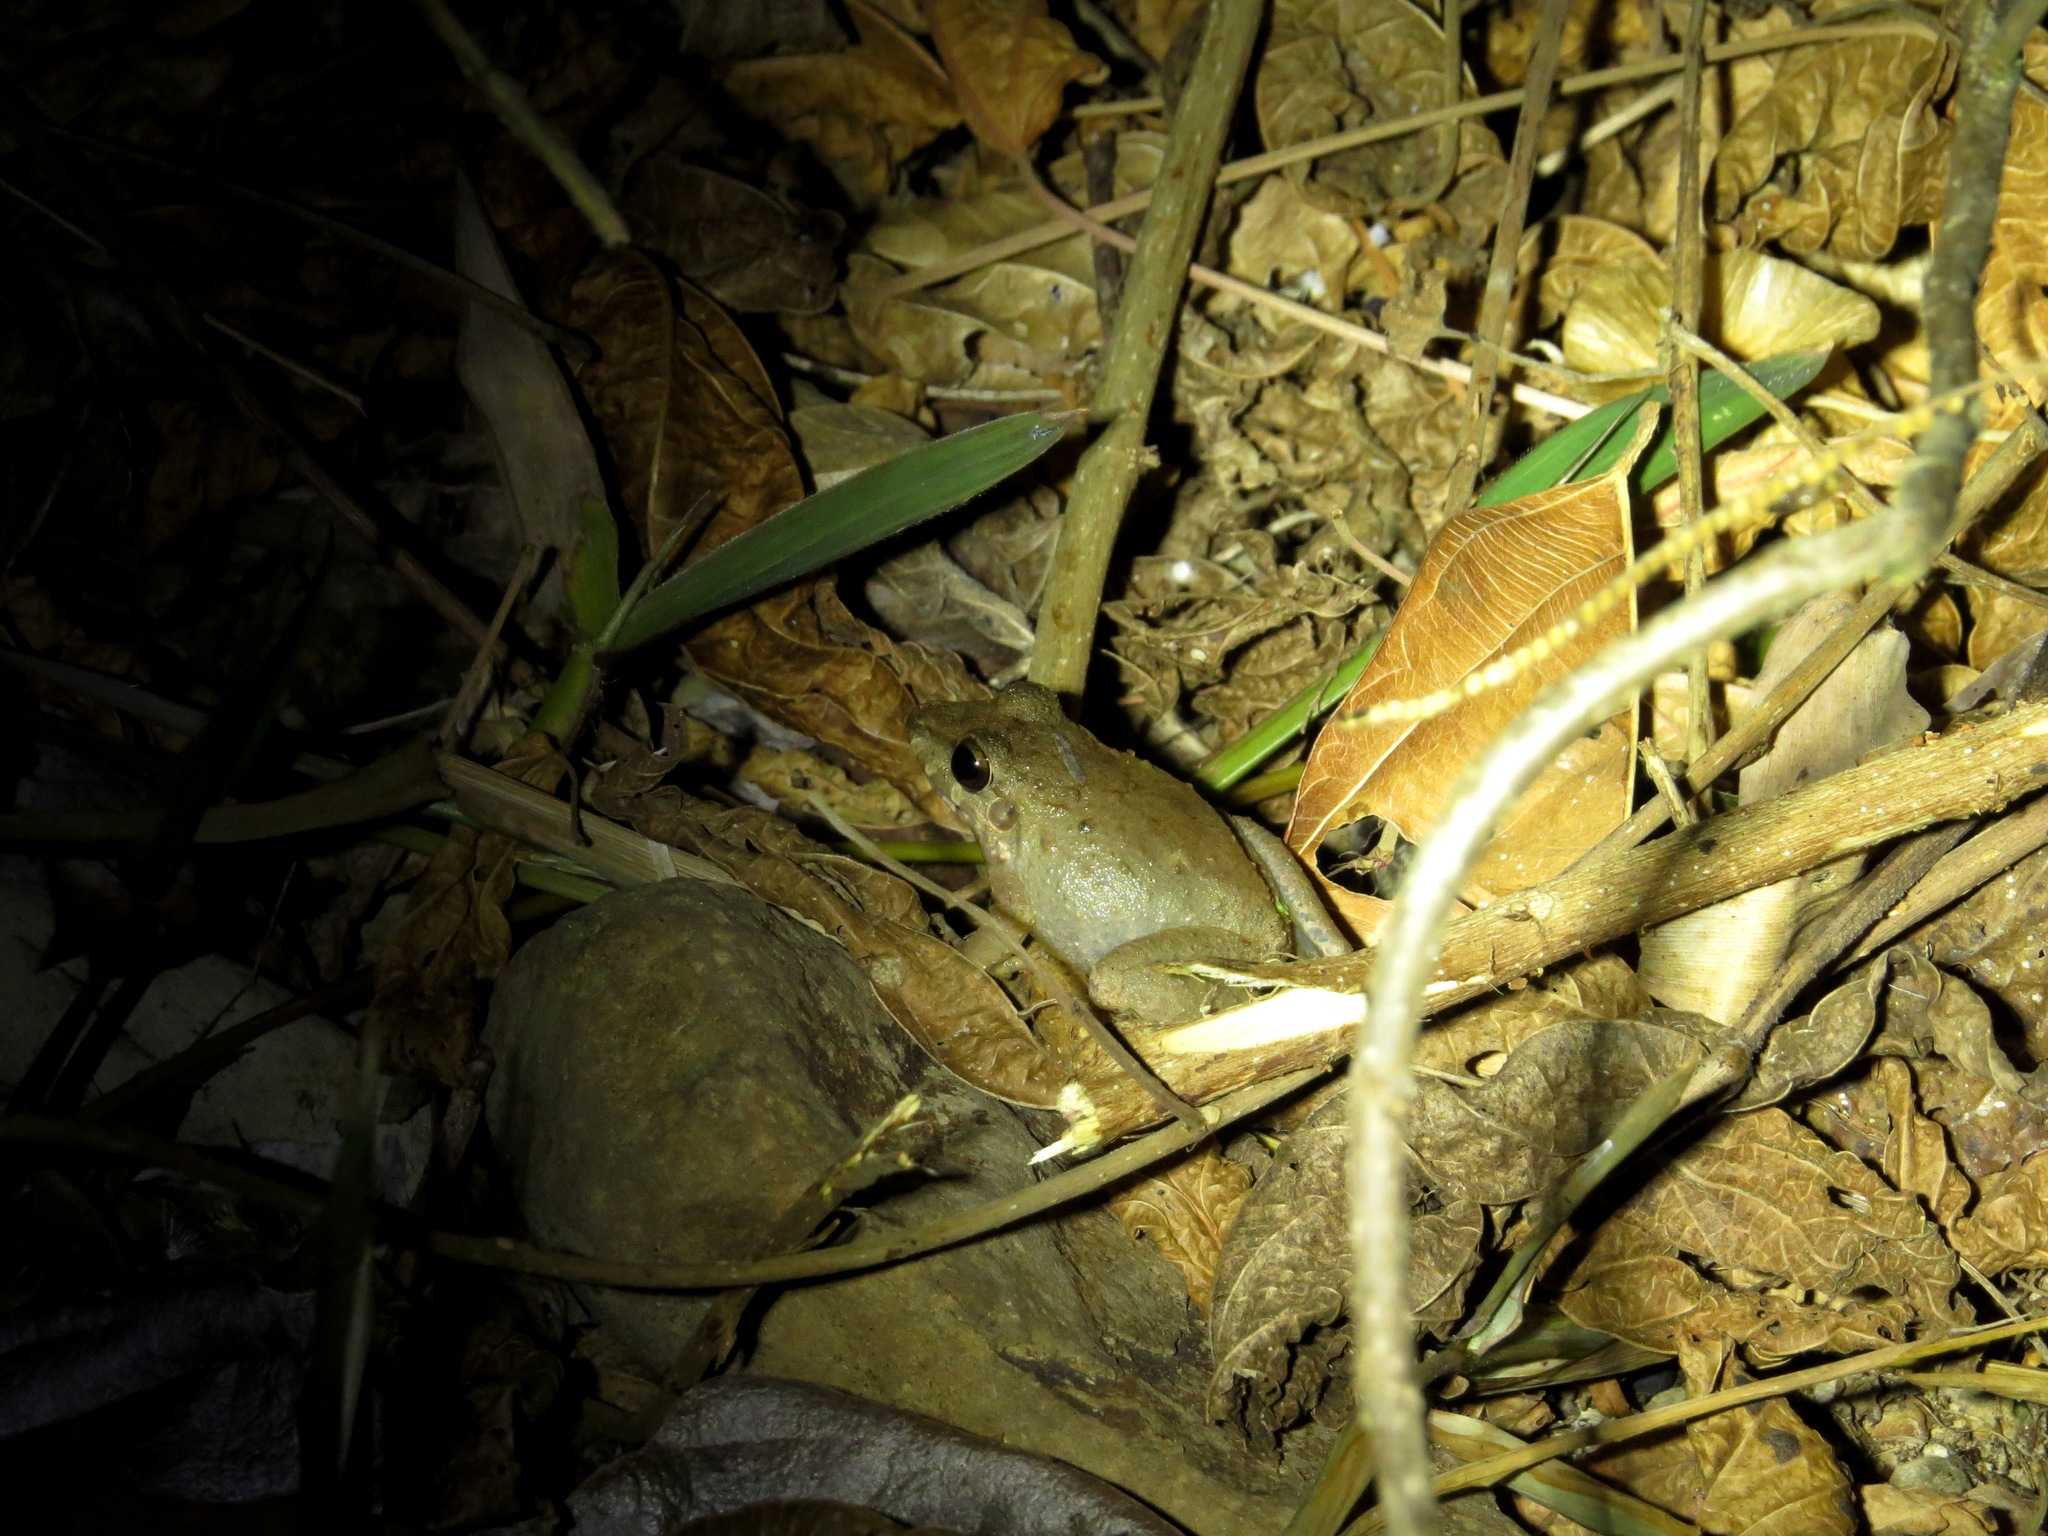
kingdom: Animalia
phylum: Chordata
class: Amphibia
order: Anura
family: Craugastoridae
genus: Craugastor
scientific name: Craugastor fitzingeri
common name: Fitzinger's robber frog
